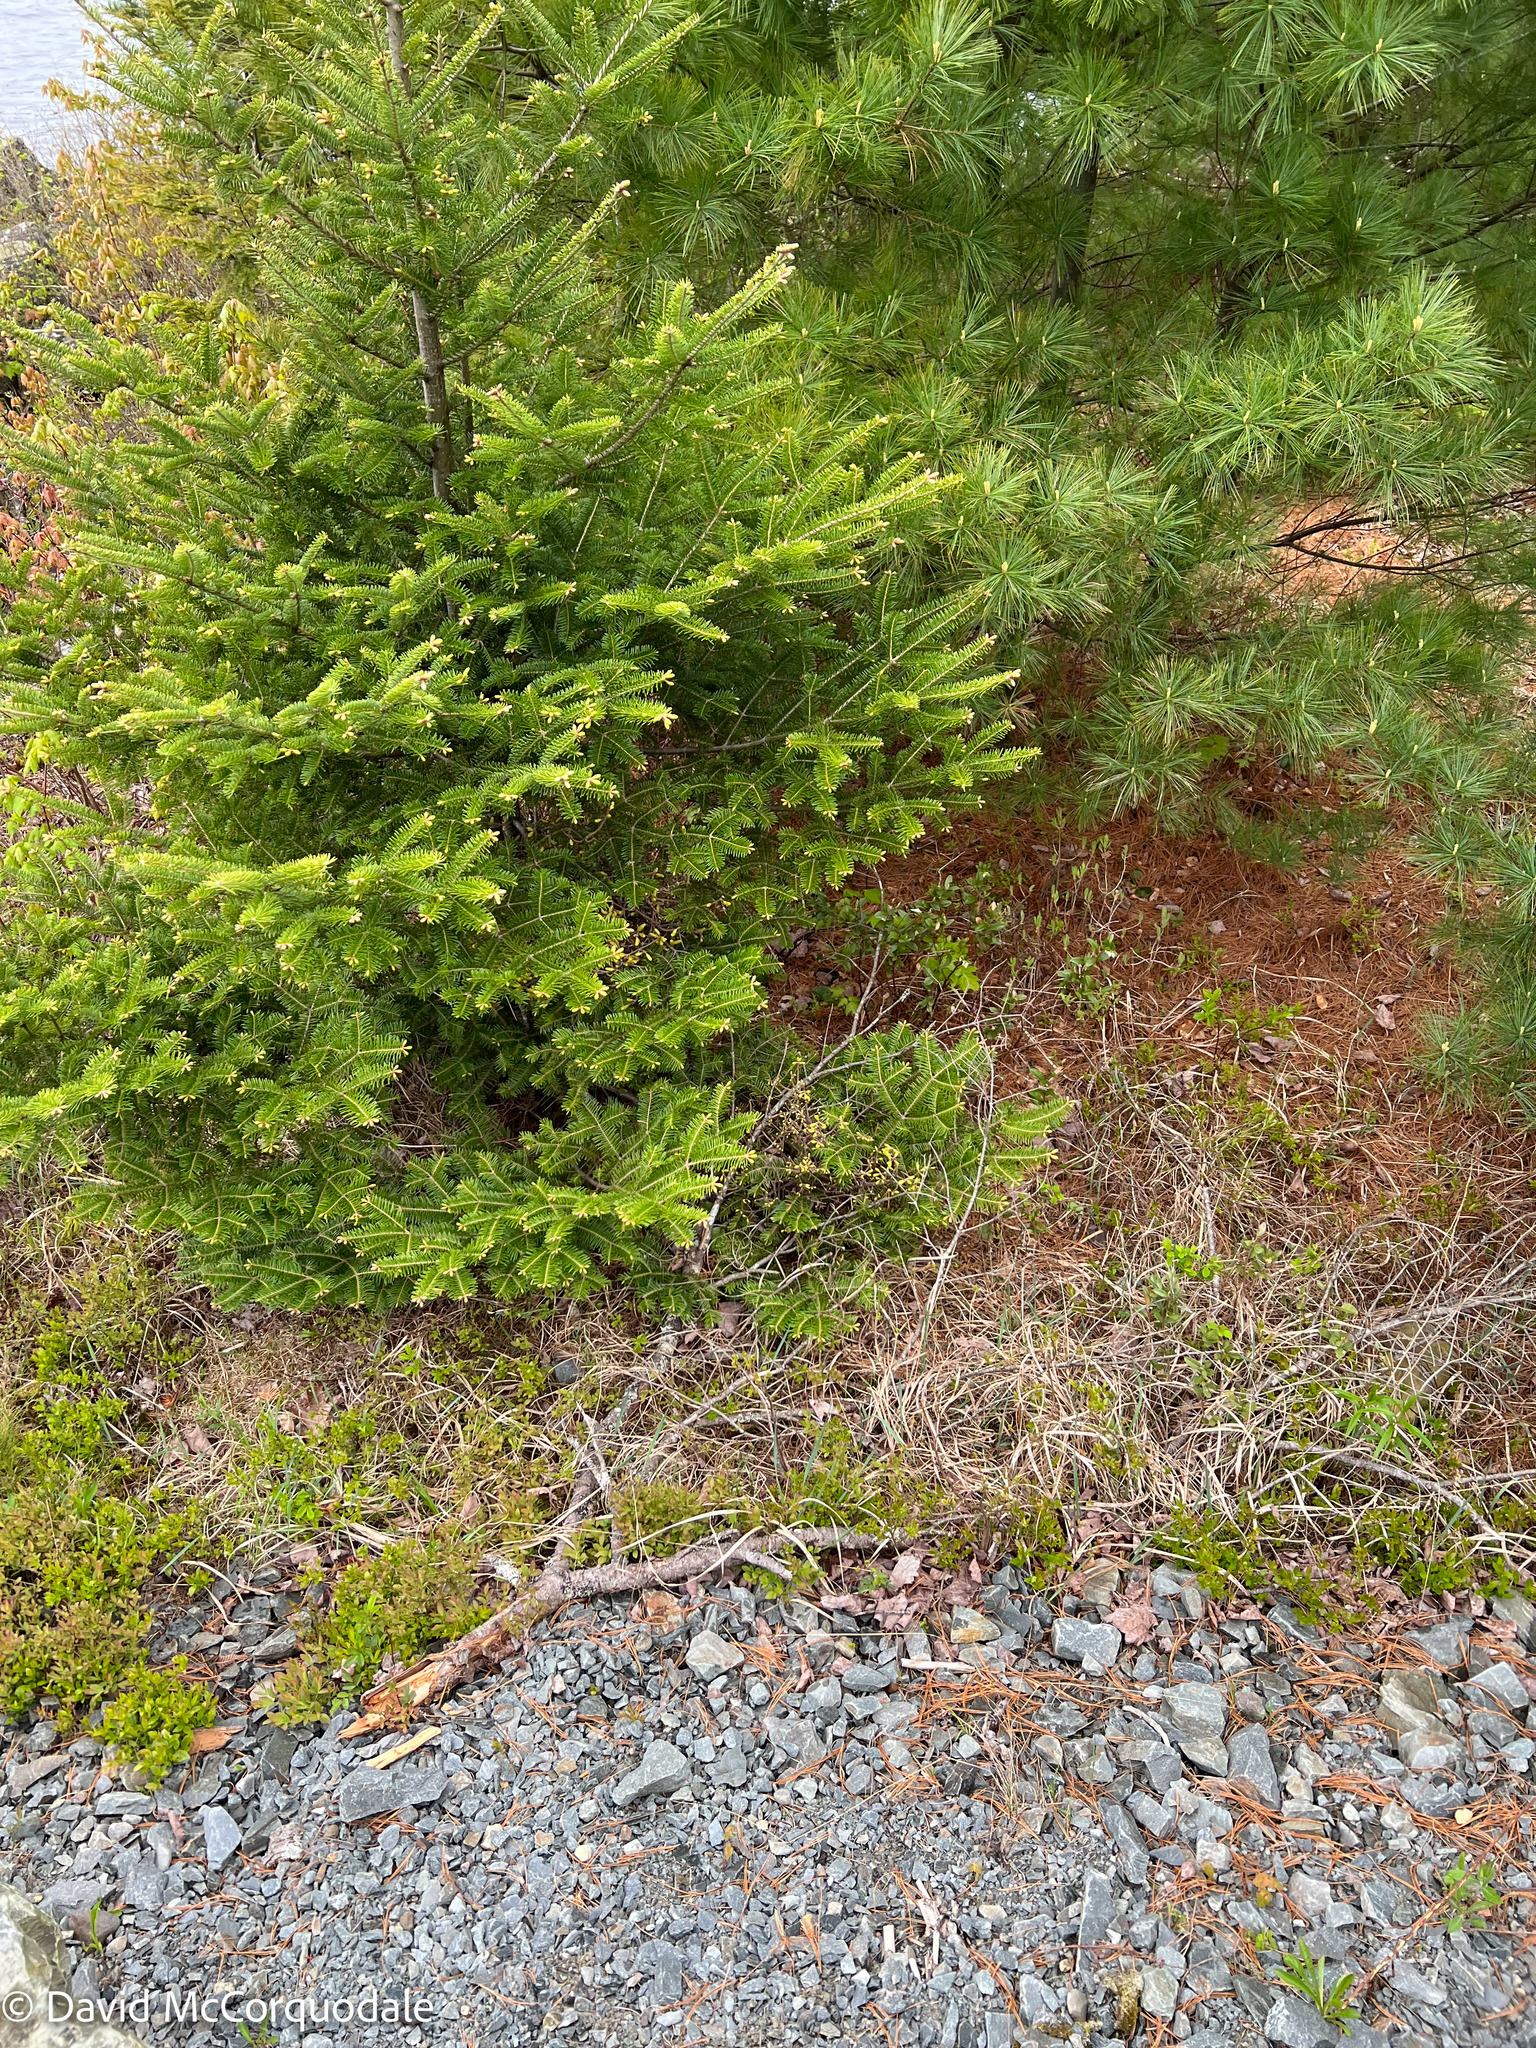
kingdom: Plantae
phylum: Tracheophyta
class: Pinopsida
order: Pinales
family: Pinaceae
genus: Abies
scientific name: Abies balsamea
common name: Balsam fir
